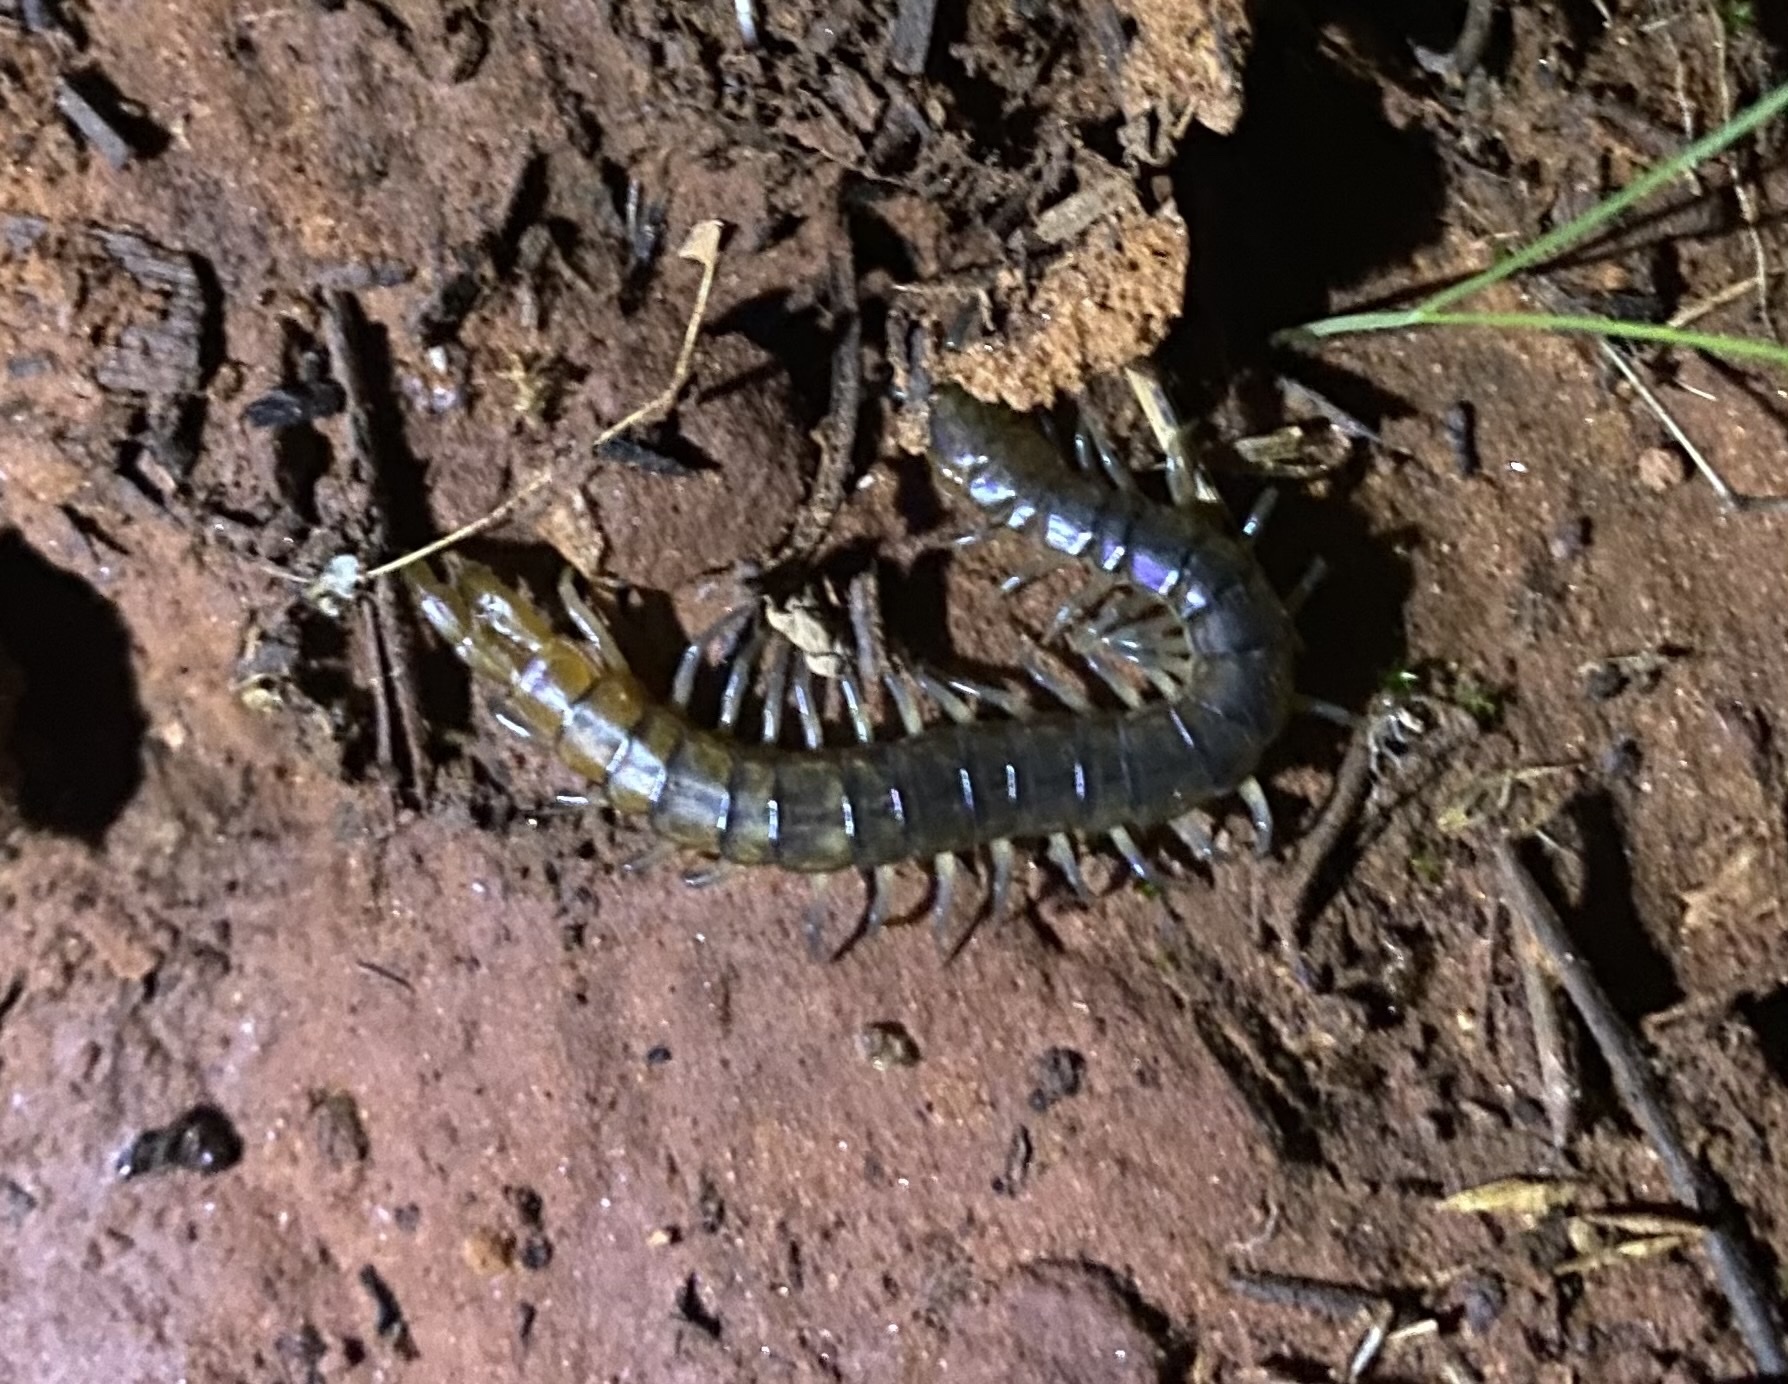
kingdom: Animalia
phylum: Arthropoda
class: Chilopoda
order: Scolopendromorpha
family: Scolopendridae
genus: Scolopendra
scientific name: Scolopendra viridis
